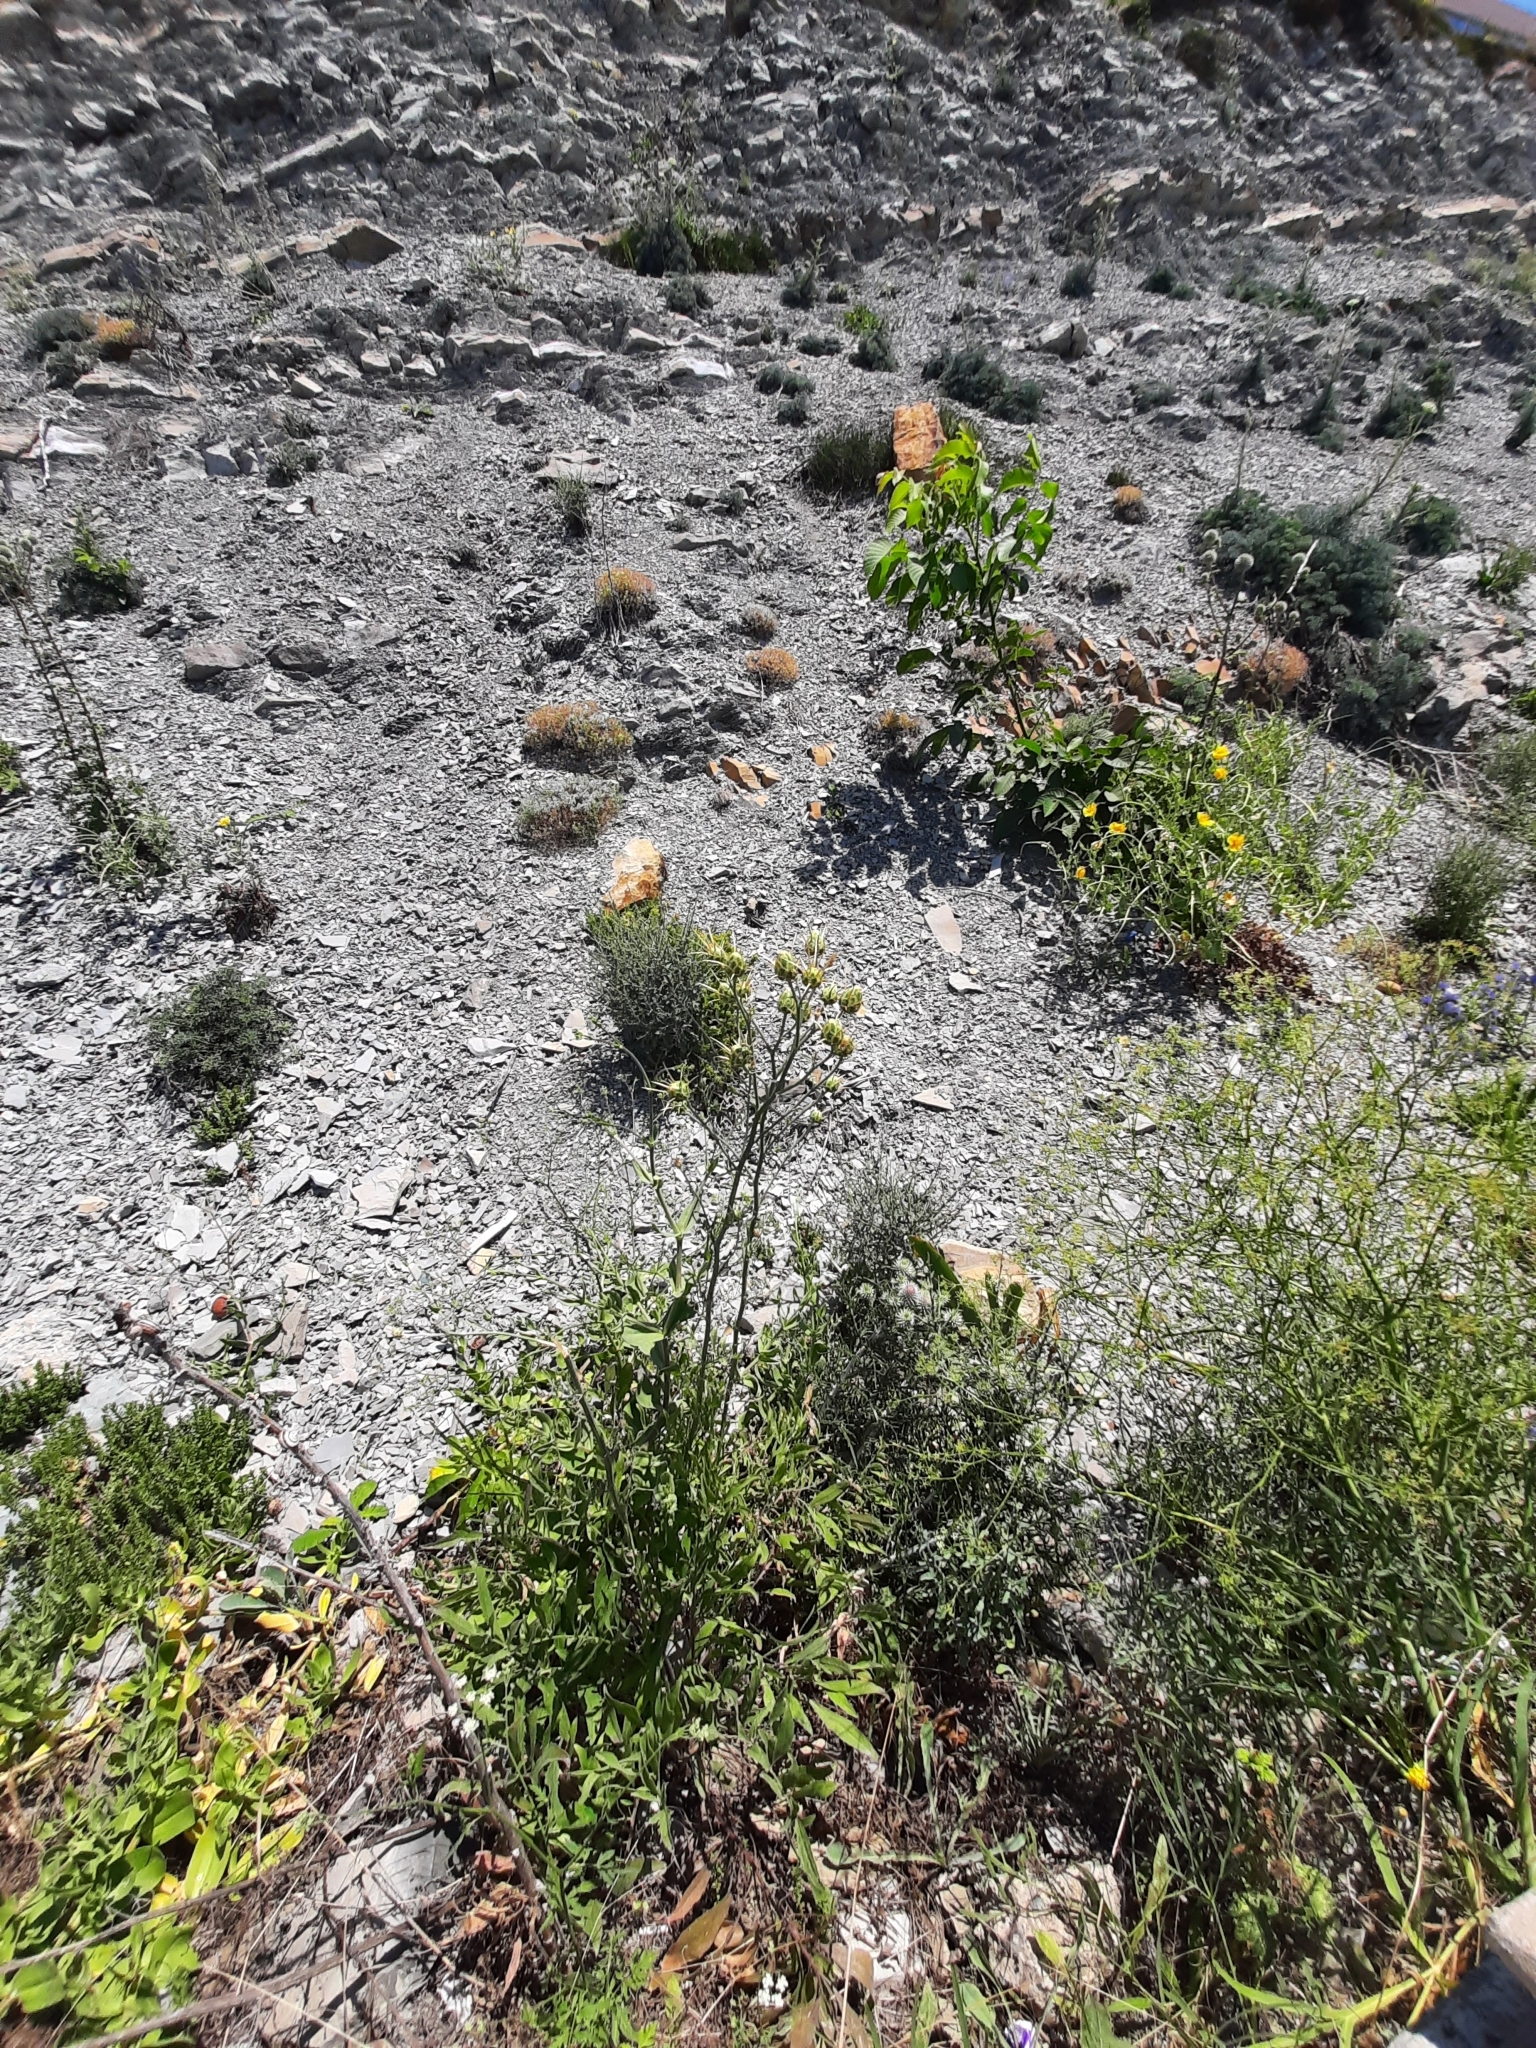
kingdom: Plantae
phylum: Tracheophyta
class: Magnoliopsida
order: Asterales
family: Asteraceae
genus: Centaurea
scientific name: Centaurea solstitialis
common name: Yellow star-thistle
